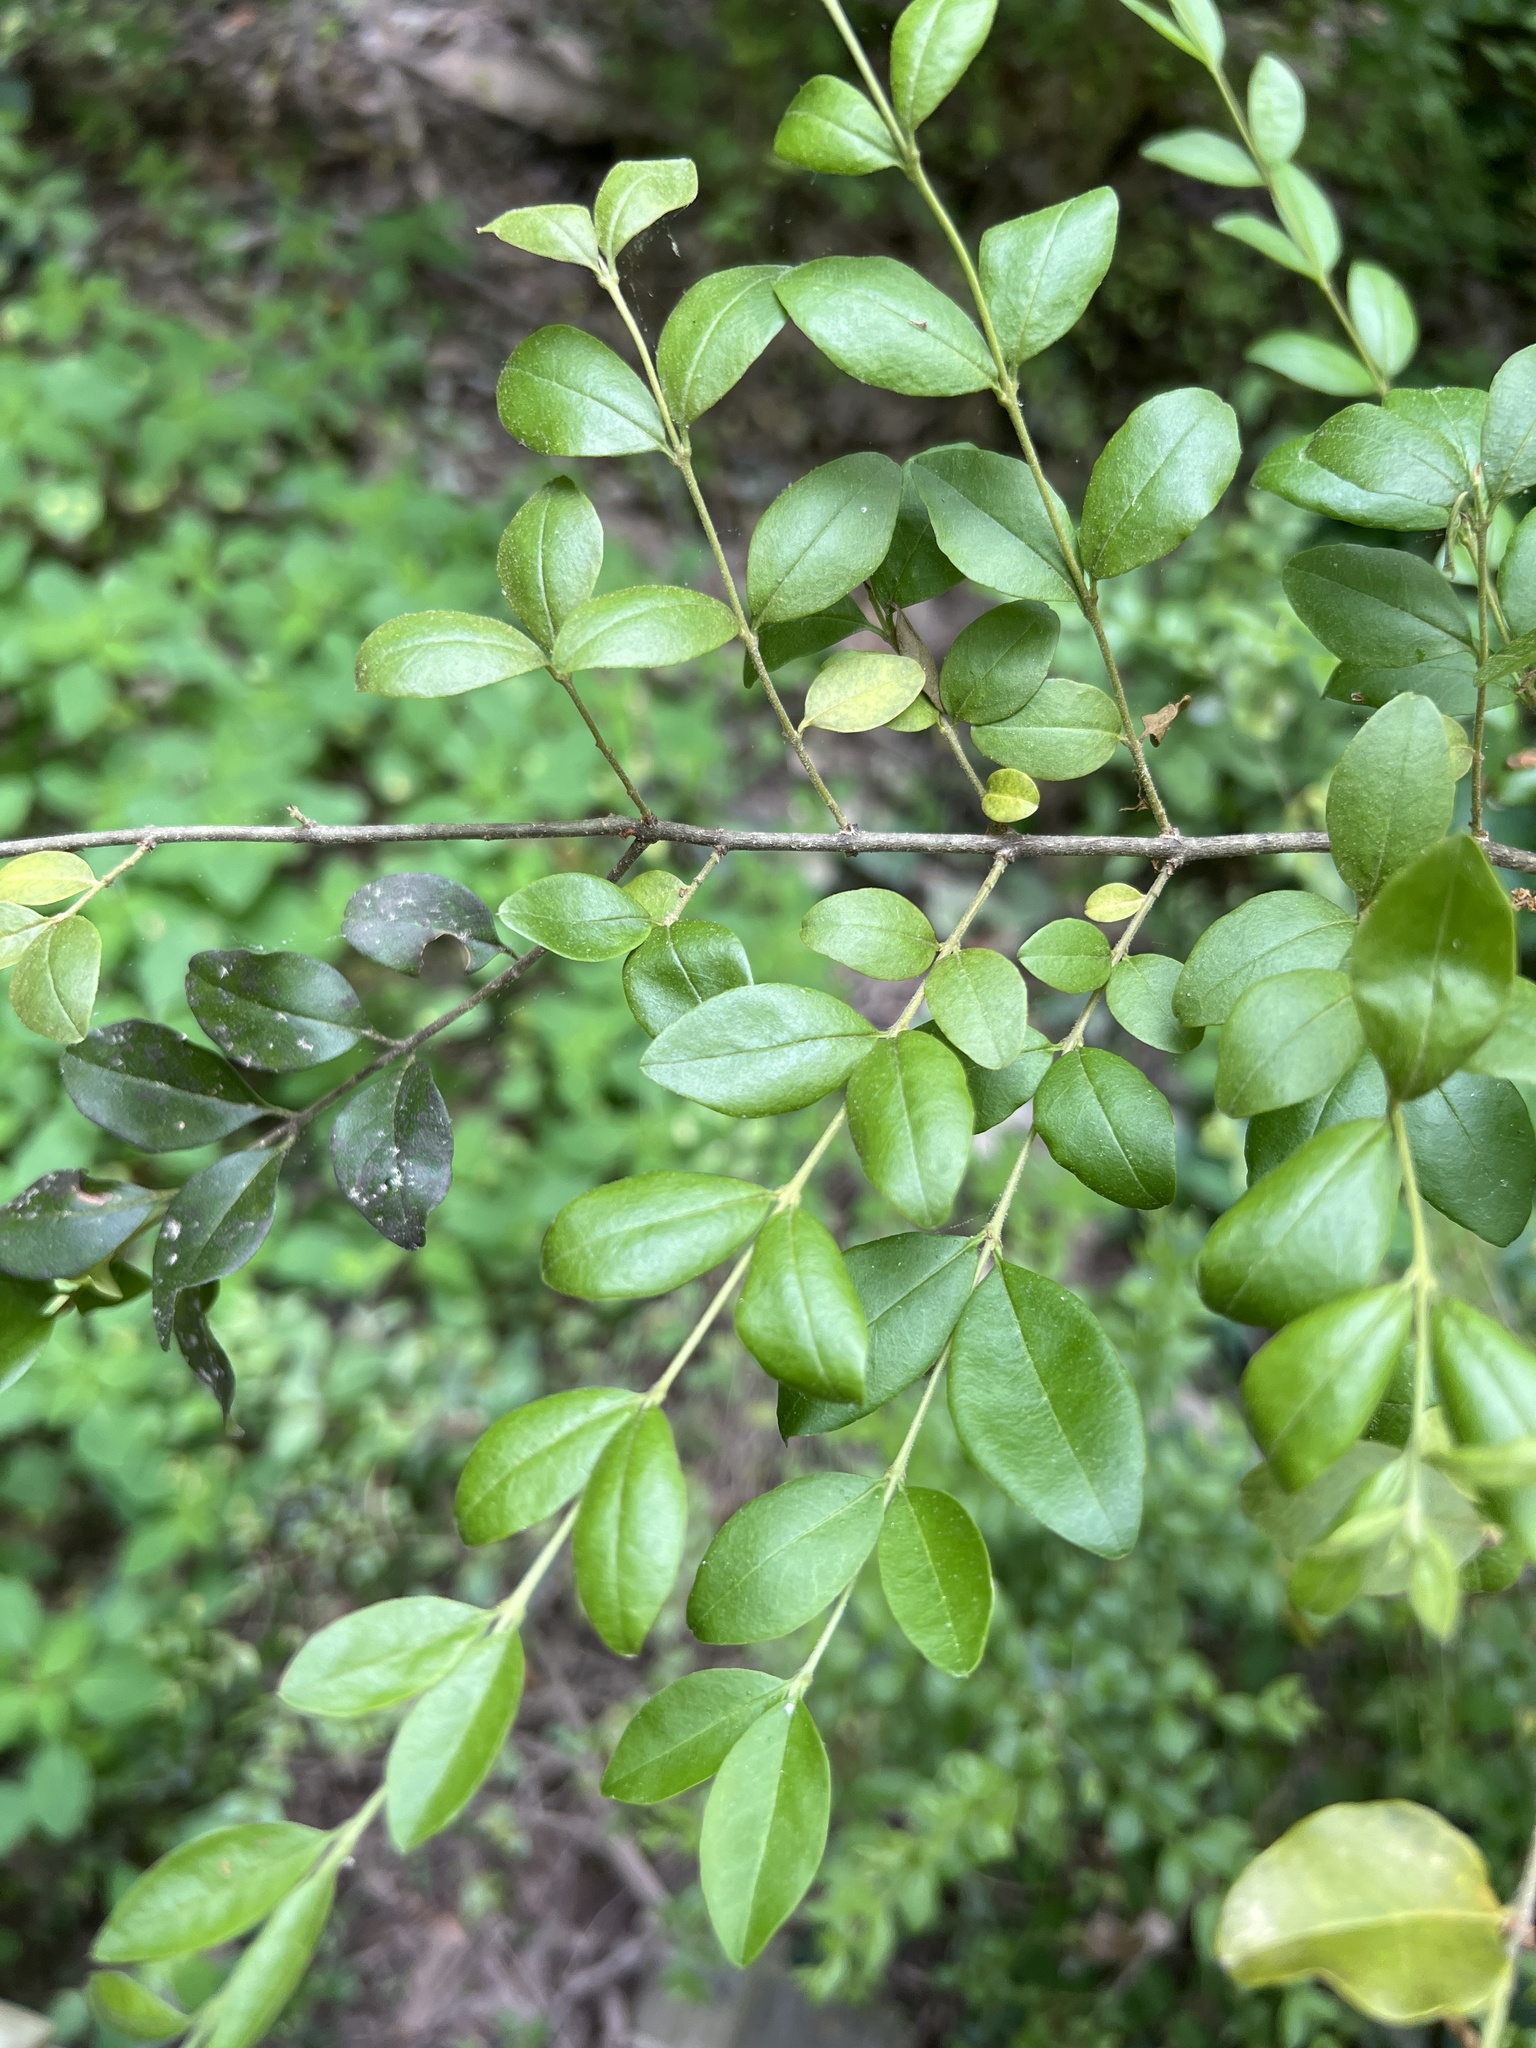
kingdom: Plantae
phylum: Tracheophyta
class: Magnoliopsida
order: Lamiales
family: Oleaceae
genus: Ligustrum
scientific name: Ligustrum sinense
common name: Chinese privet
